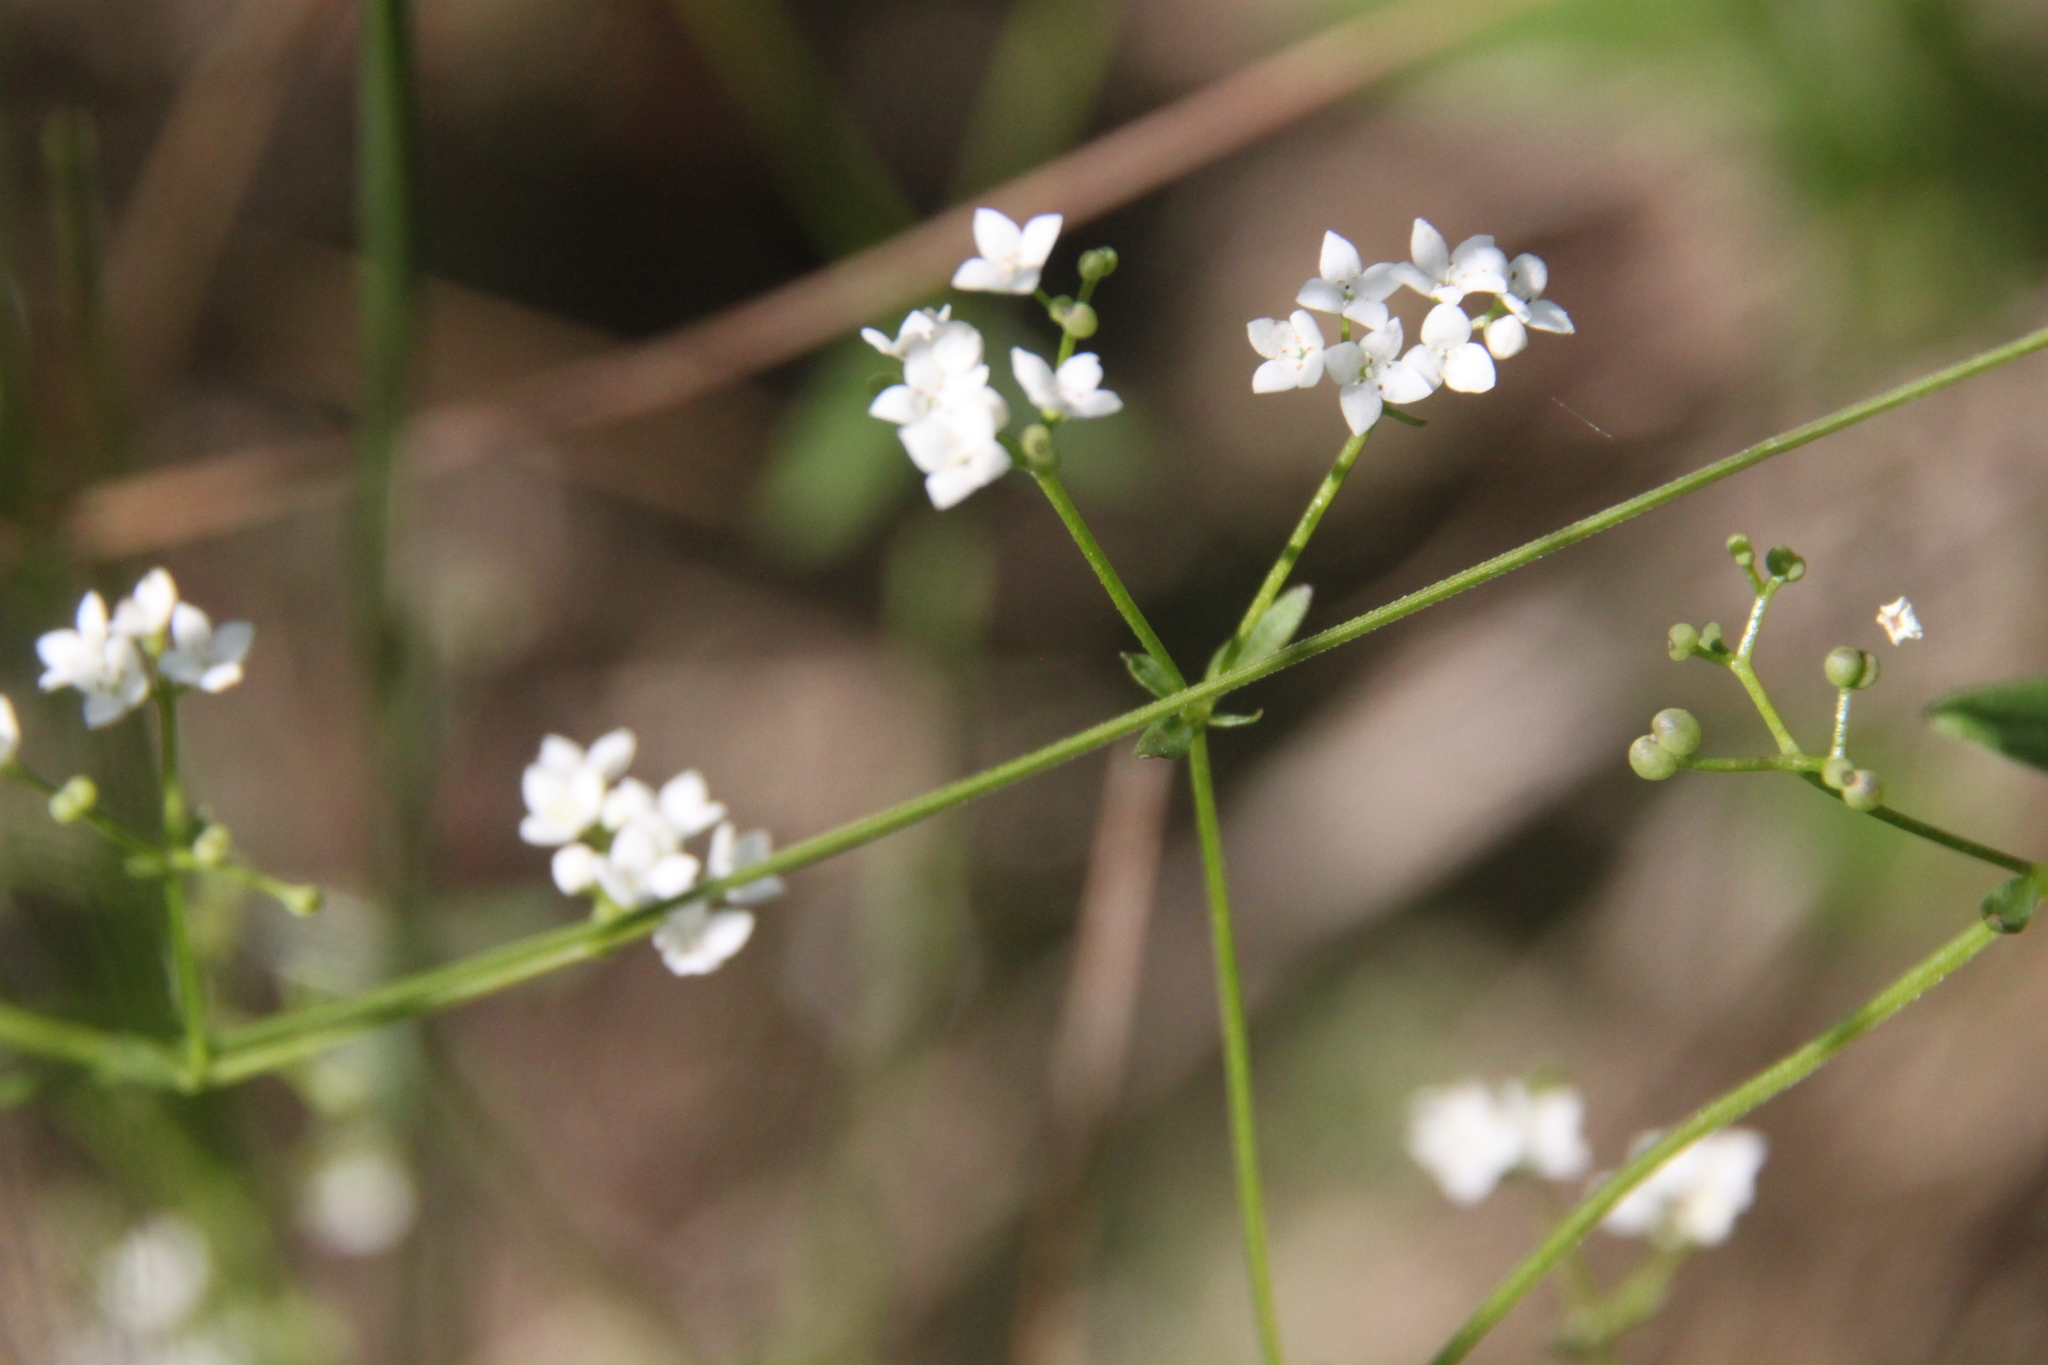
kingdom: Plantae
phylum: Tracheophyta
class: Magnoliopsida
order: Gentianales
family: Rubiaceae
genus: Galium
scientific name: Galium palustre
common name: Common marsh-bedstraw
